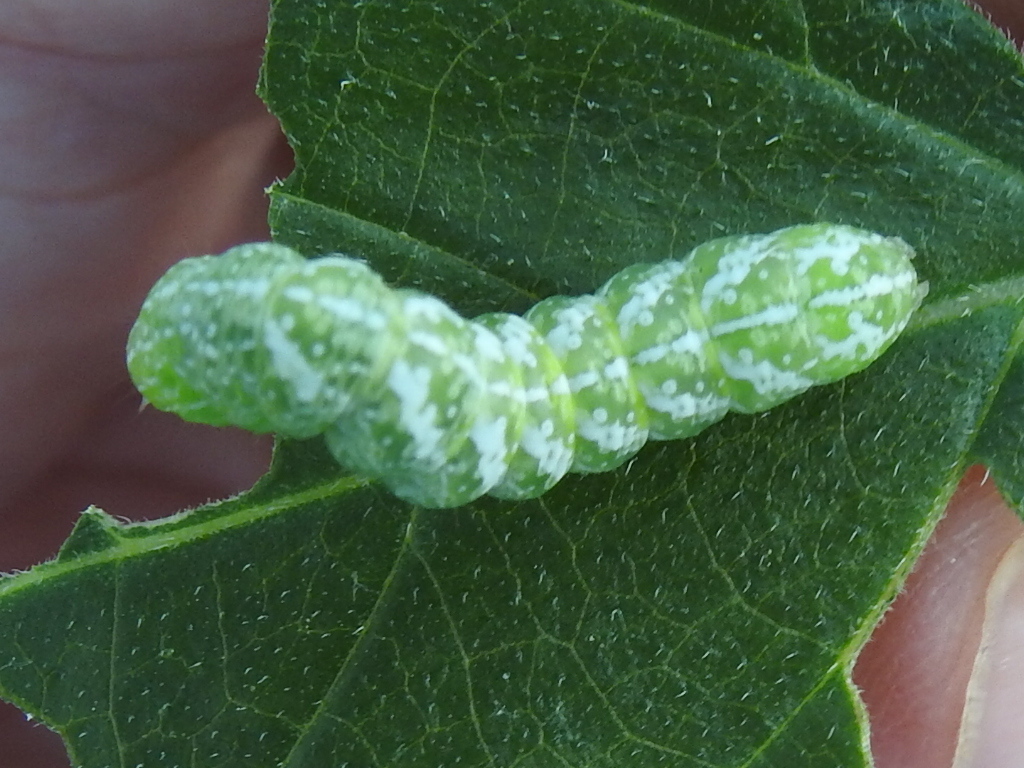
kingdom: Animalia
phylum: Arthropoda
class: Insecta
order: Lepidoptera
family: Noctuidae
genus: Diastema
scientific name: Diastema tigris
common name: Lantana moth
